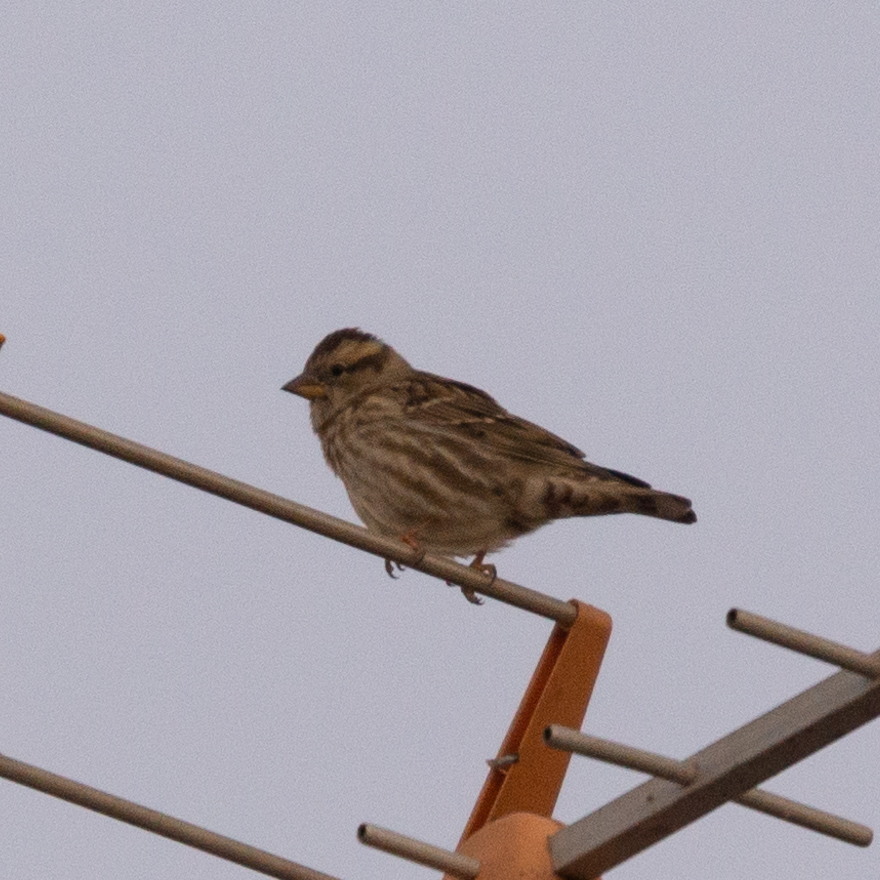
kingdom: Animalia
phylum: Chordata
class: Aves
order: Passeriformes
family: Passeridae
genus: Petronia
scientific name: Petronia petronia
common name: Rock sparrow
